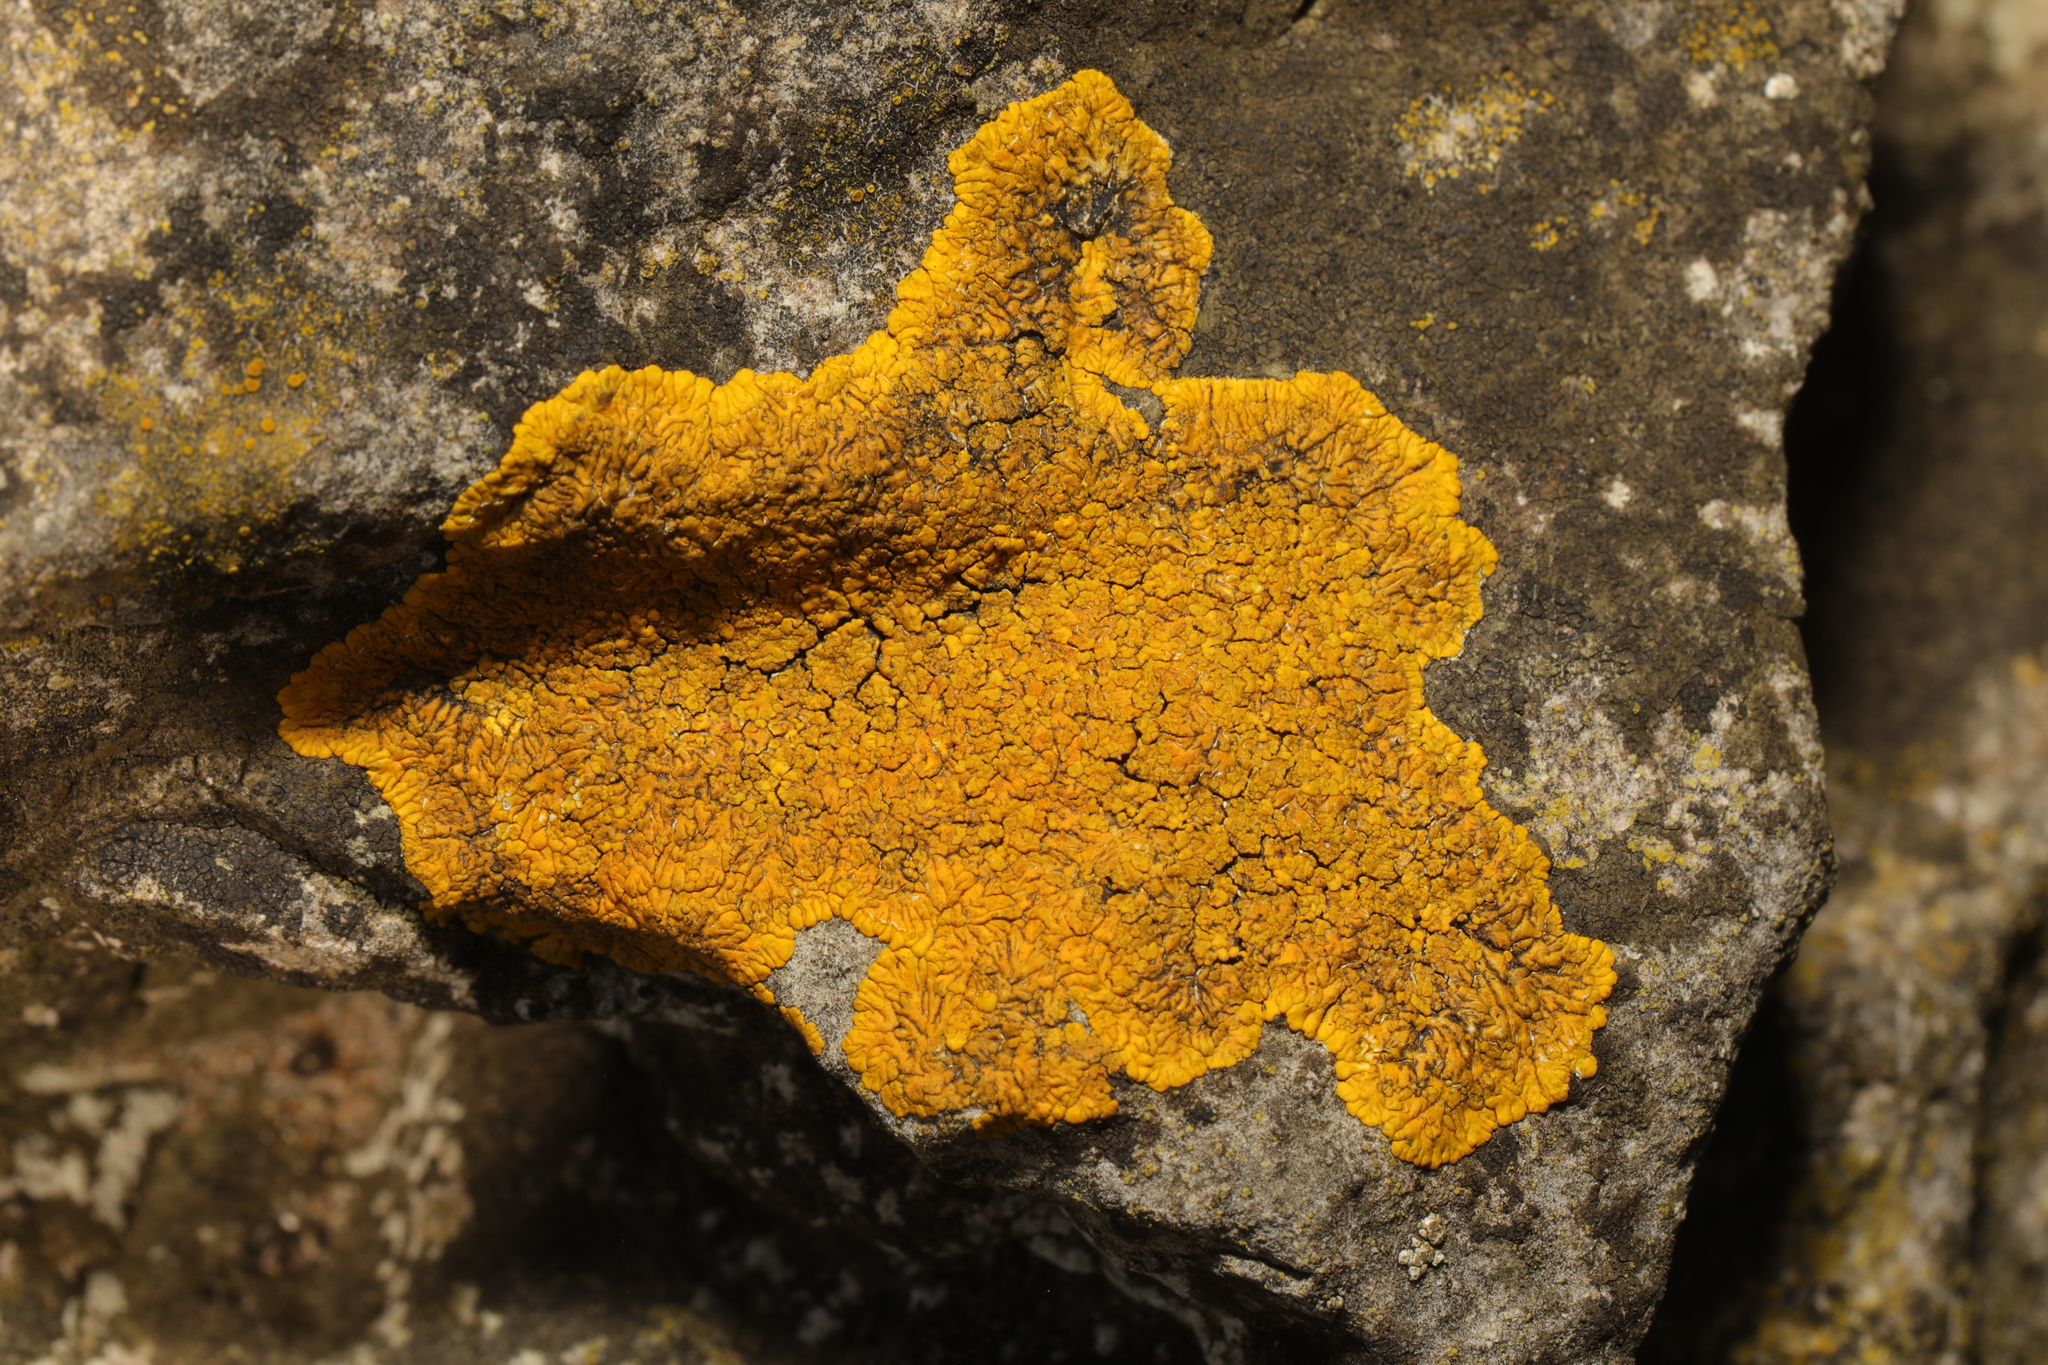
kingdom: Fungi
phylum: Ascomycota
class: Lecanoromycetes
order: Teloschistales
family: Teloschistaceae
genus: Variospora
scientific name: Variospora flavescens
